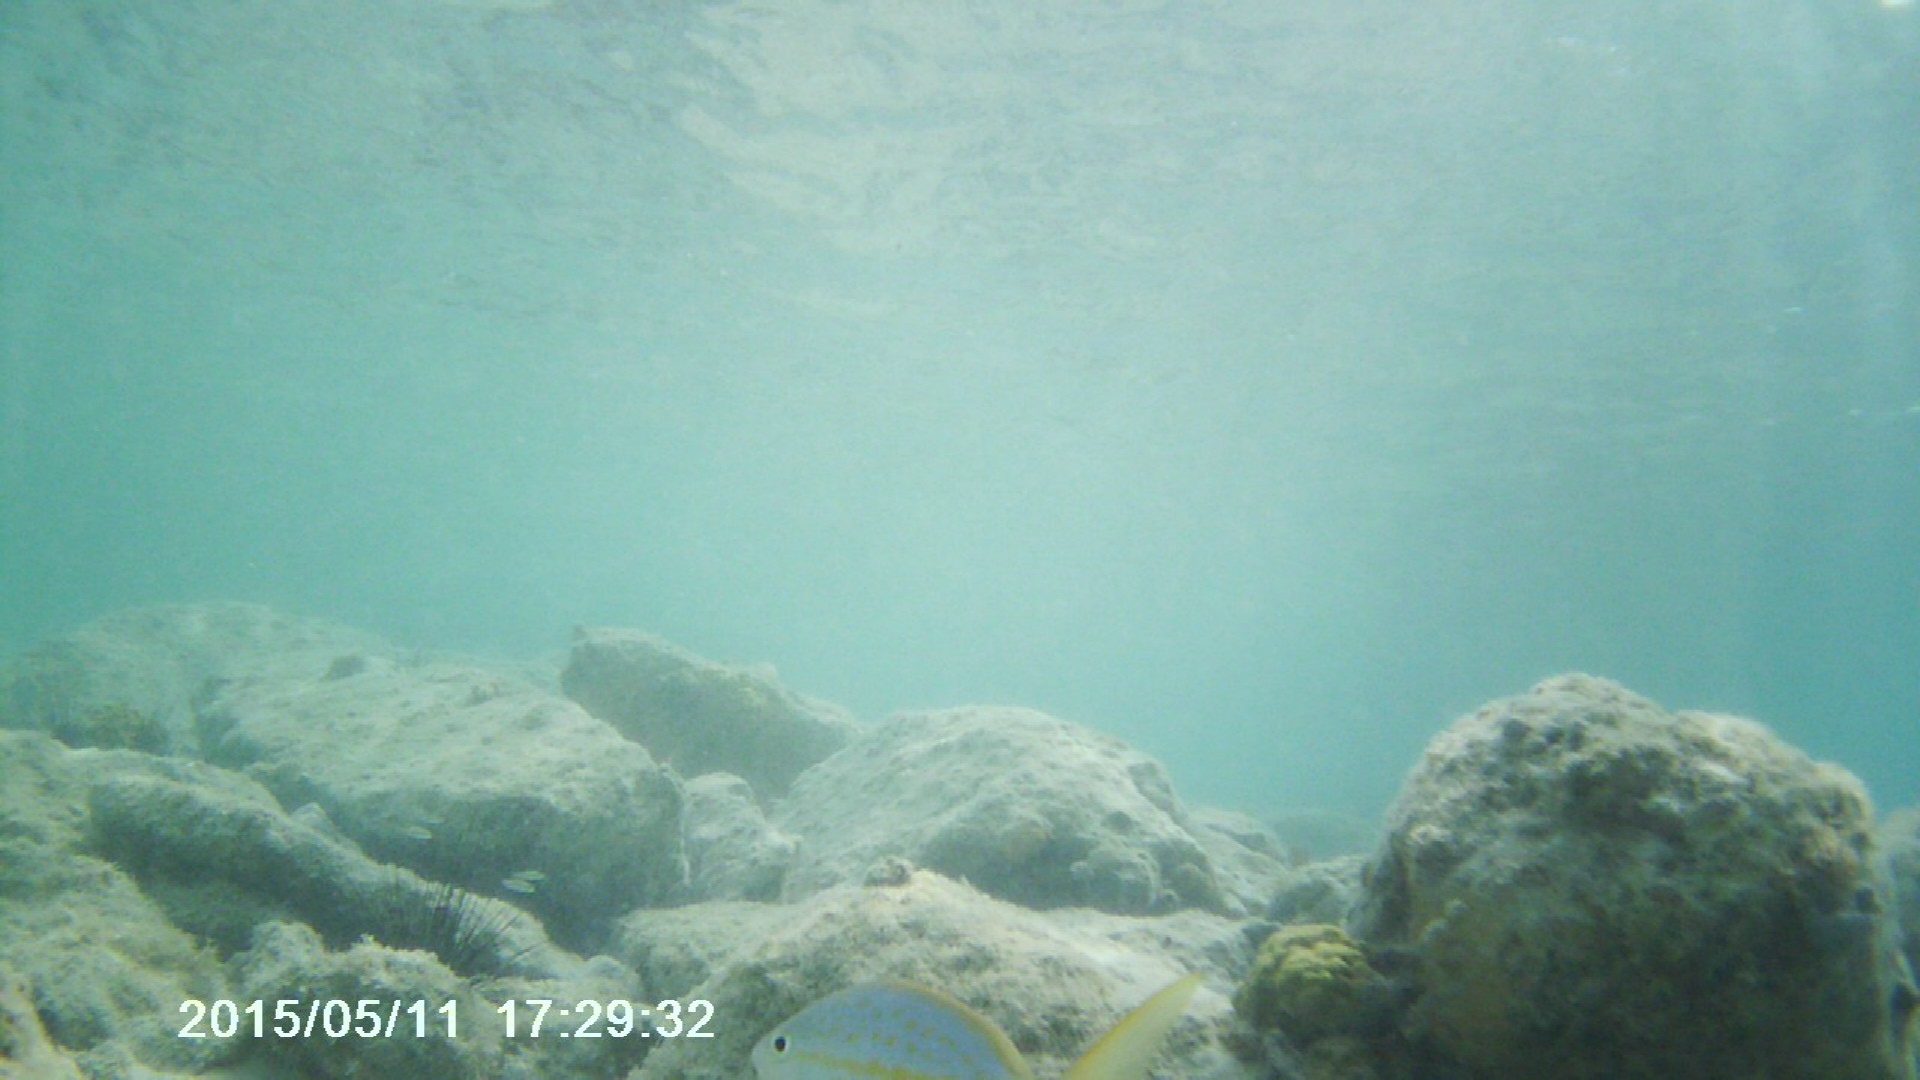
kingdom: Animalia
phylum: Chordata
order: Perciformes
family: Lutjanidae
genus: Ocyurus
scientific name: Ocyurus chrysurus
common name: Yellowtail snapper
